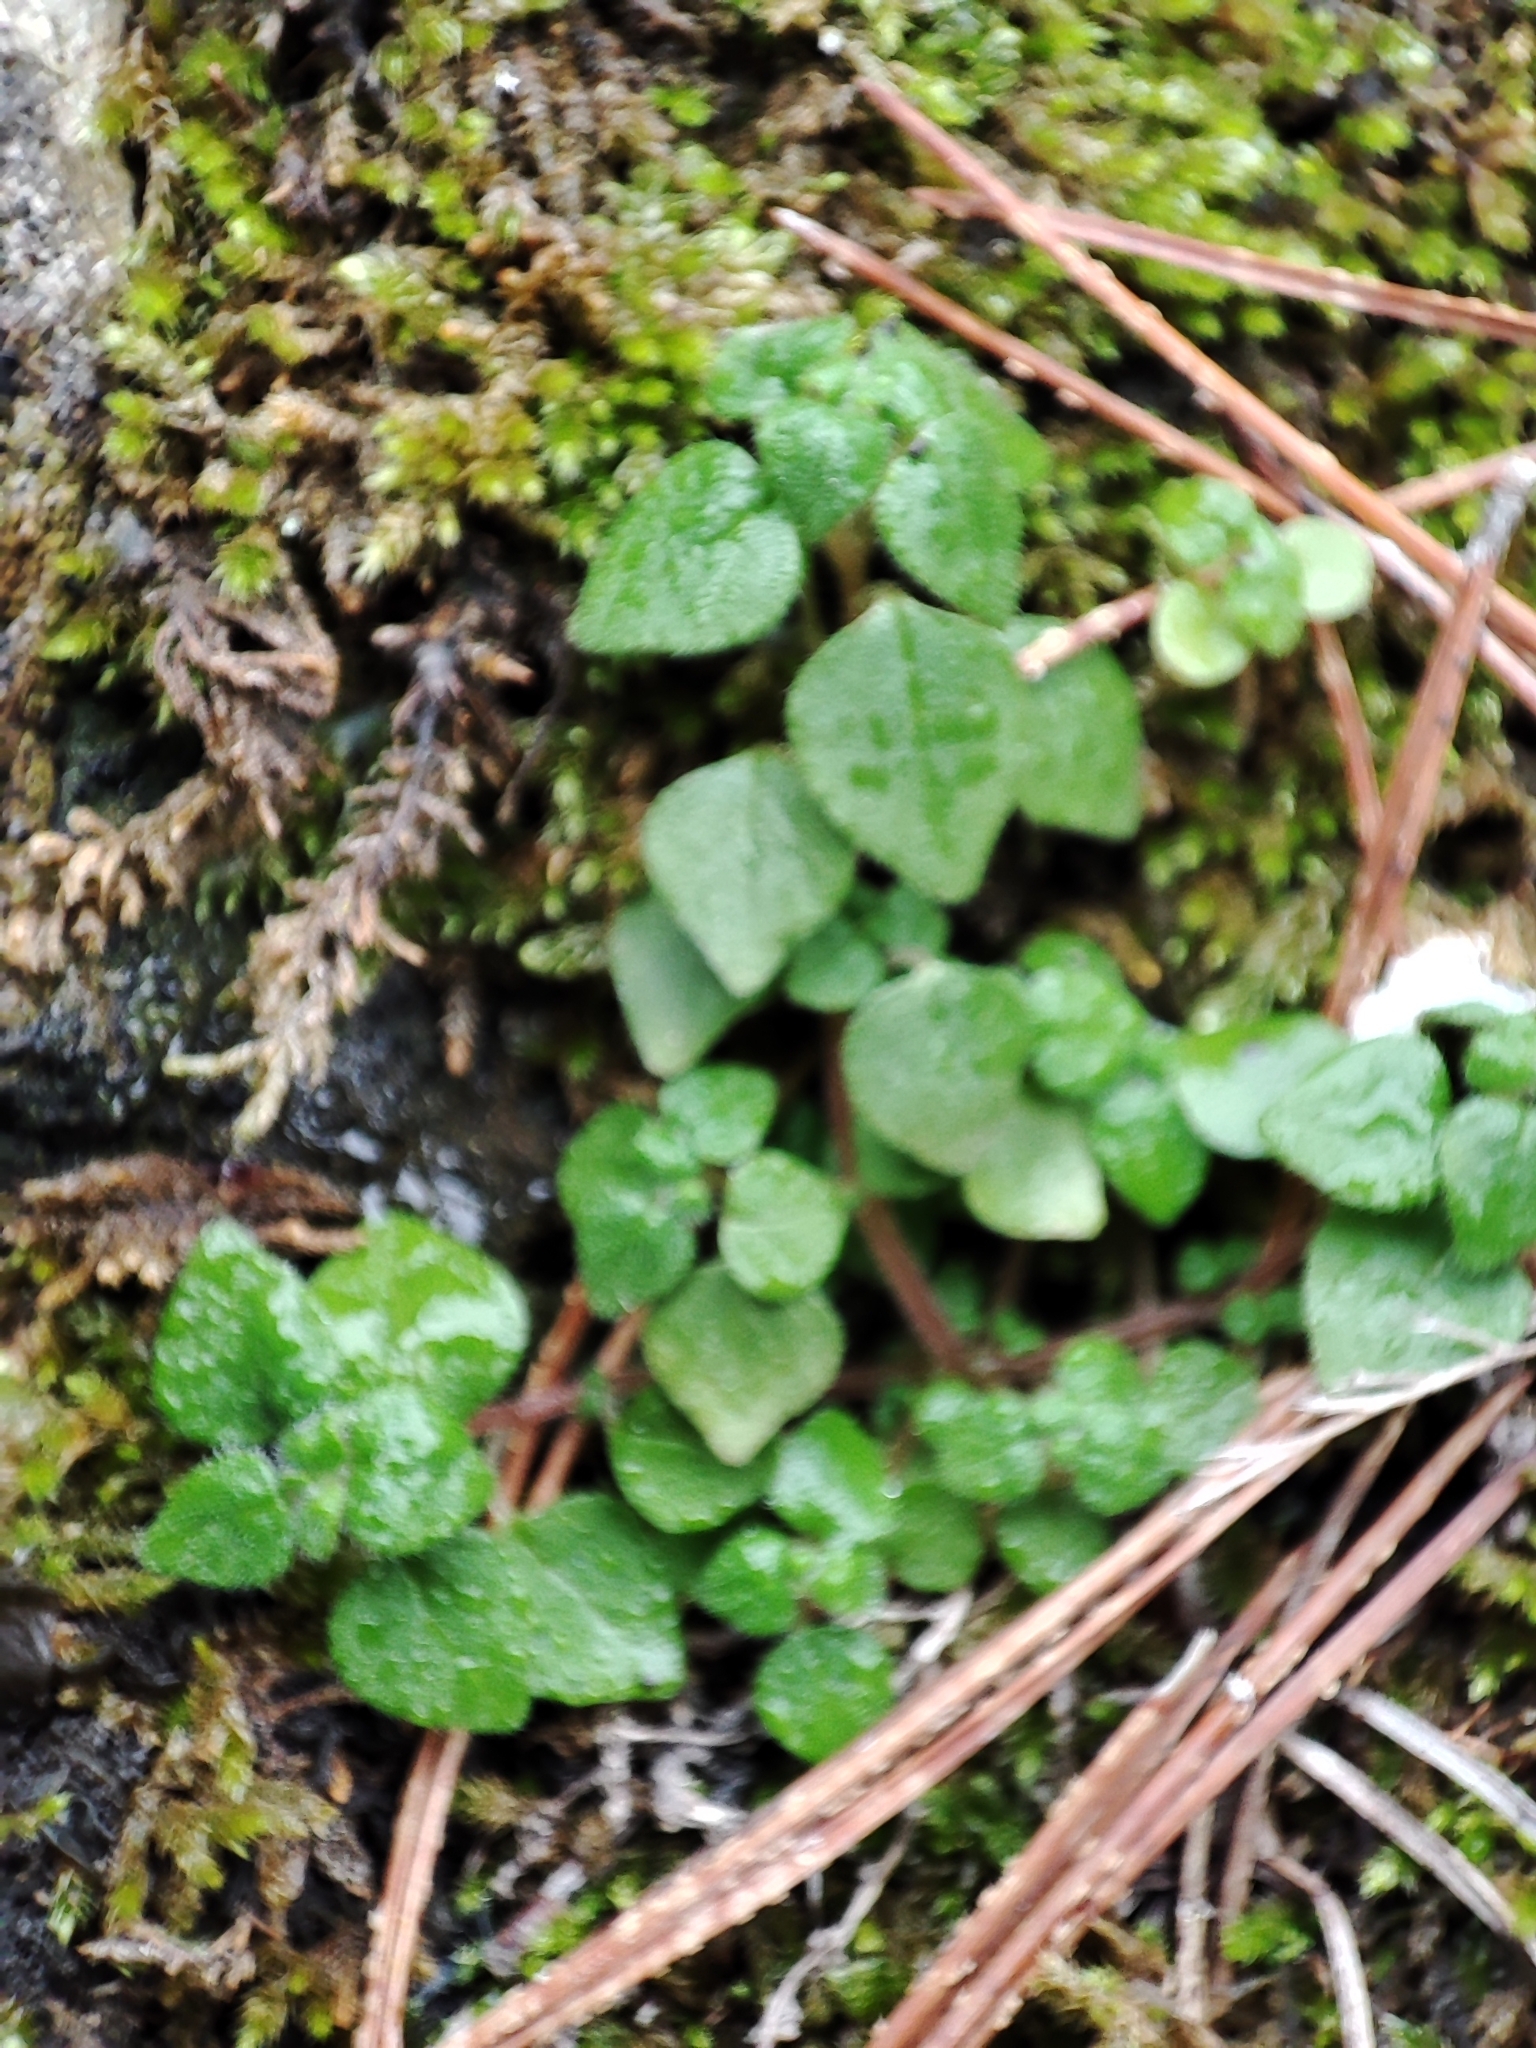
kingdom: Plantae
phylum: Tracheophyta
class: Magnoliopsida
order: Rosales
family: Urticaceae
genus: Parietaria
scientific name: Parietaria judaica
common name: Pellitory-of-the-wall
